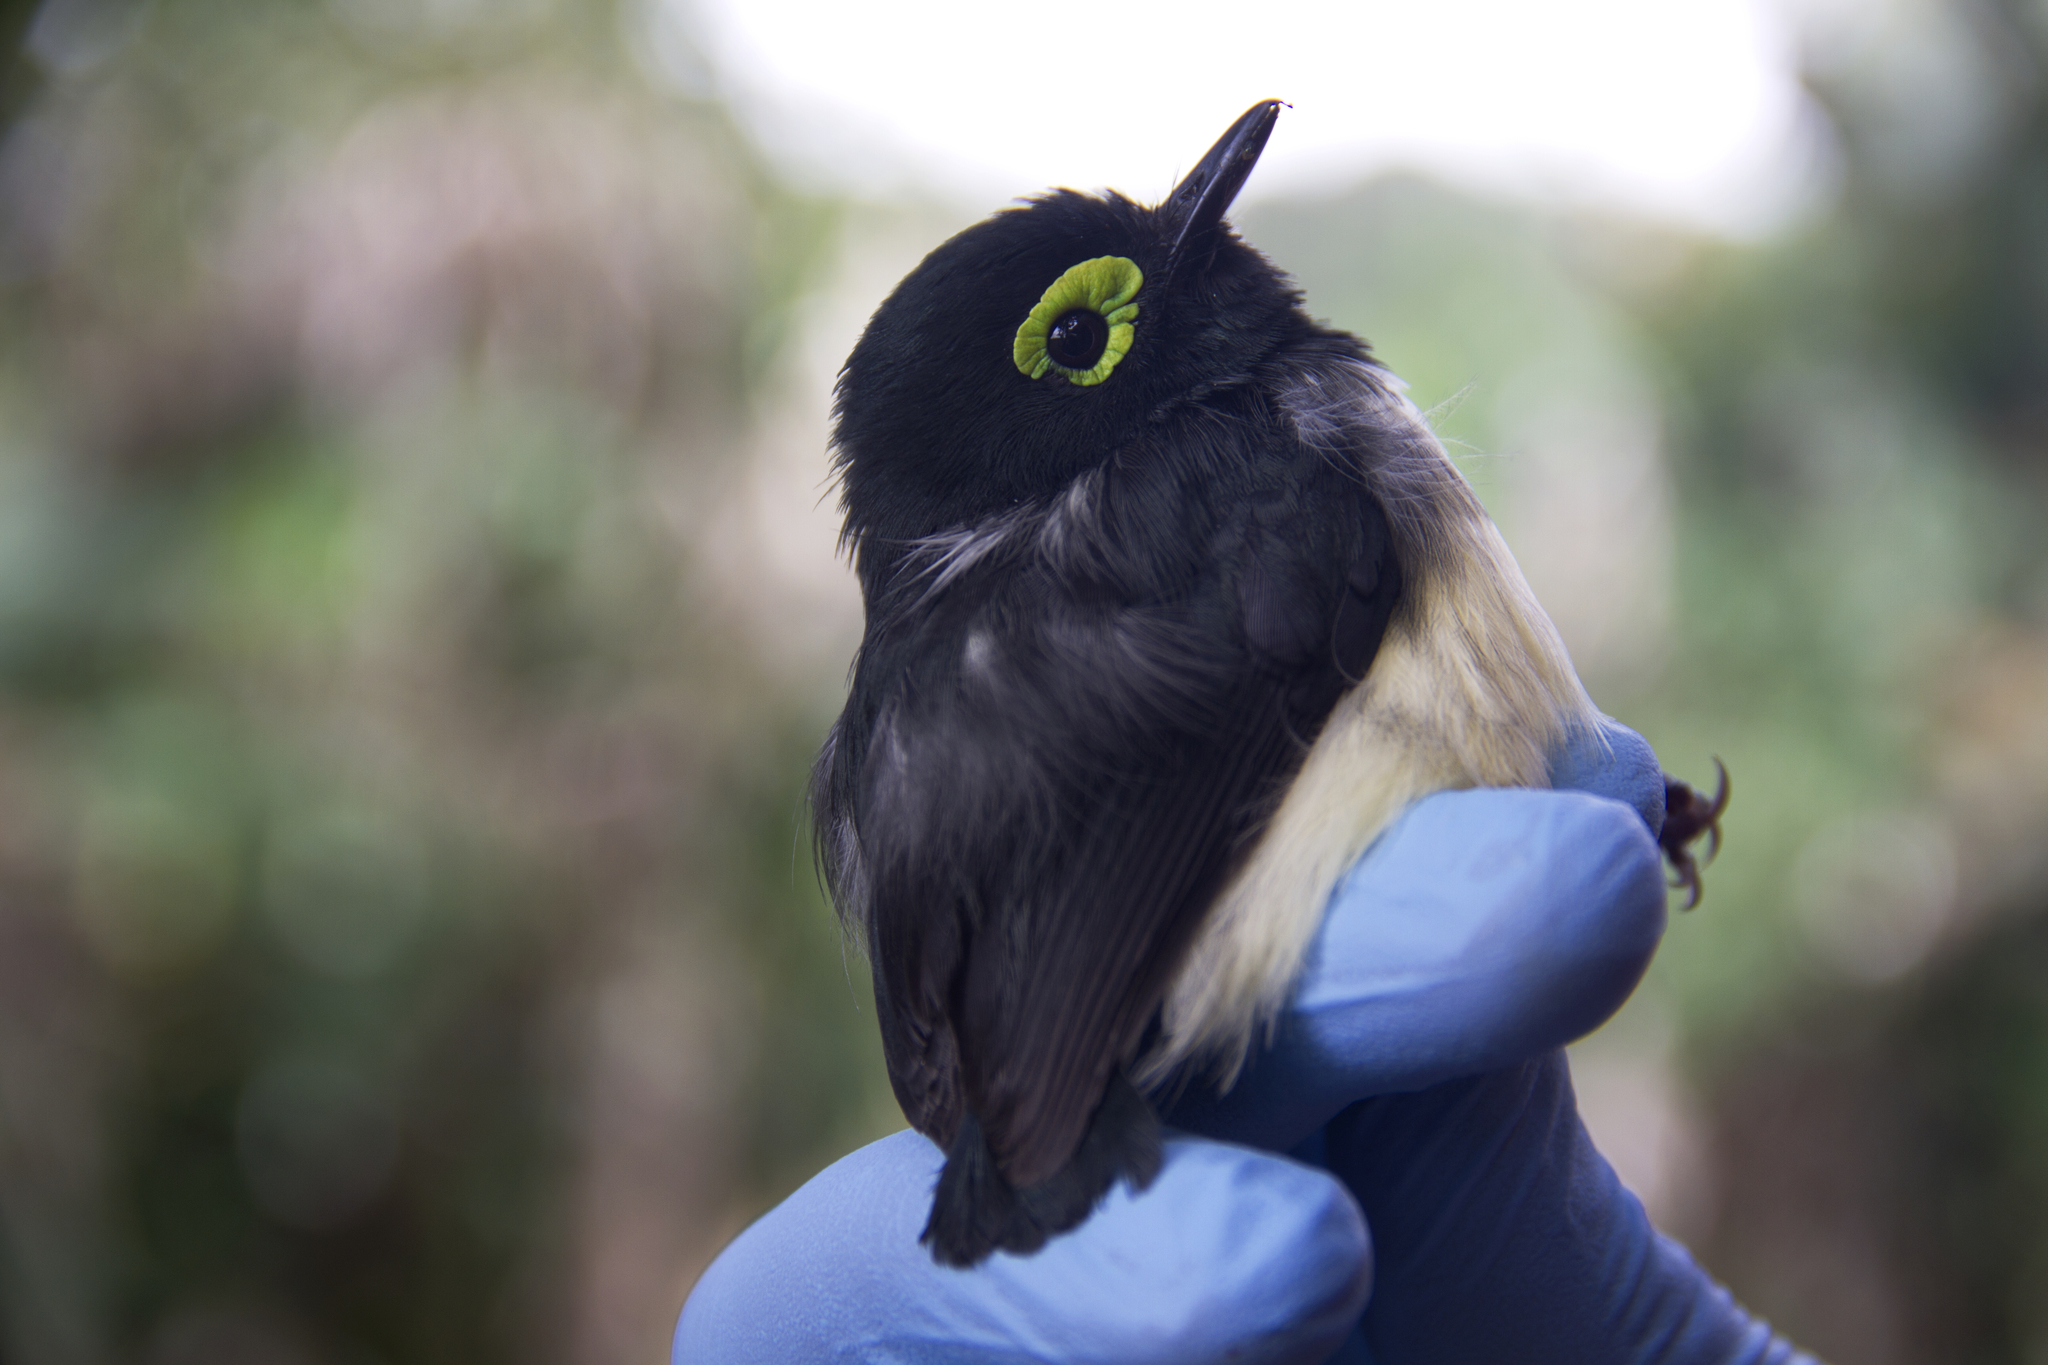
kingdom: Animalia
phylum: Chordata
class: Aves
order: Passeriformes
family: Platysteiridae
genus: Platysteira
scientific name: Platysteira chalybea
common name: Black-necked wattle-eye
